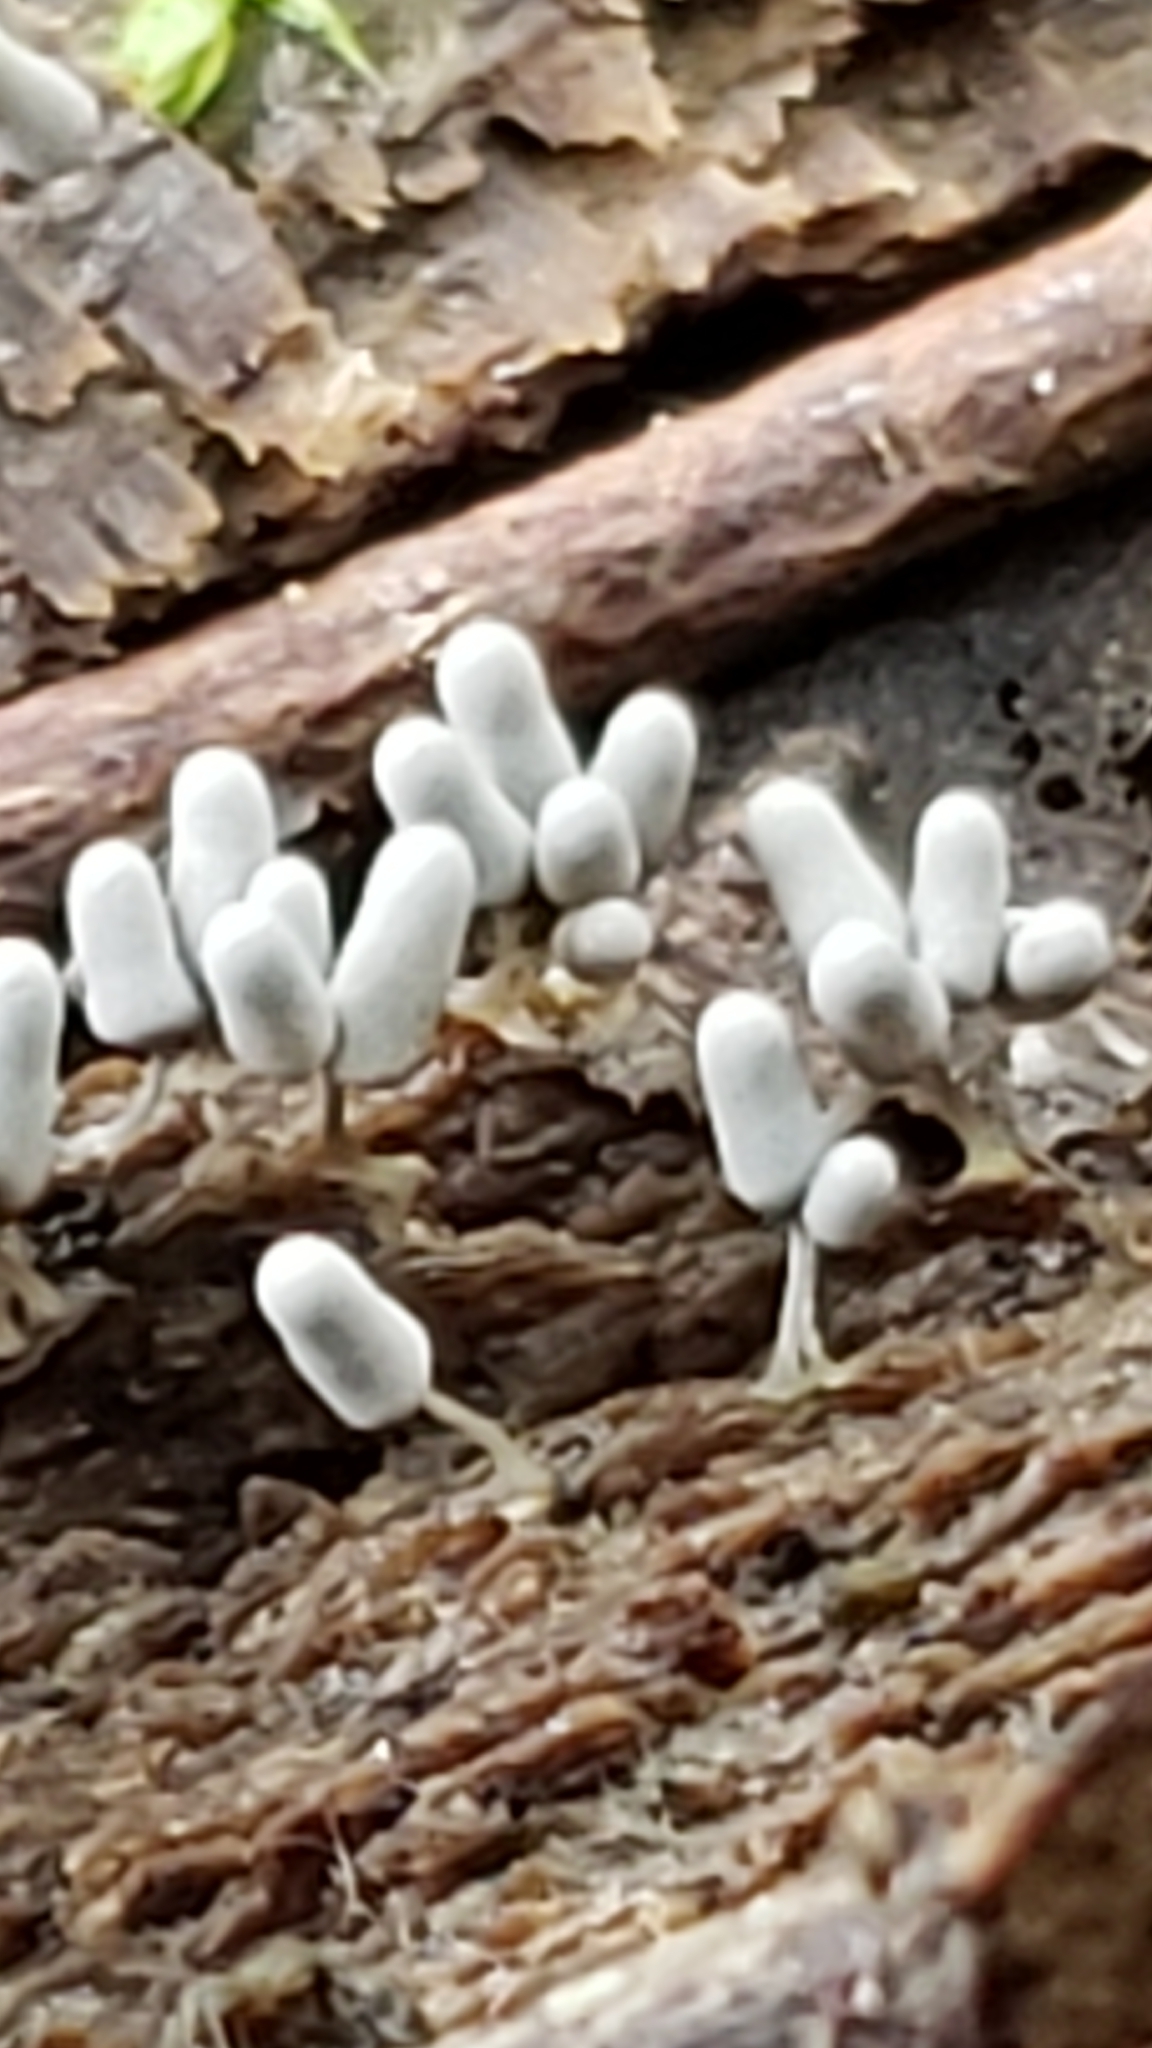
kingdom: Protozoa
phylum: Mycetozoa
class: Myxomycetes
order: Trichiales
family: Arcyriaceae
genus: Arcyria
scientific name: Arcyria cinerea
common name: White carnival candy slime mold
